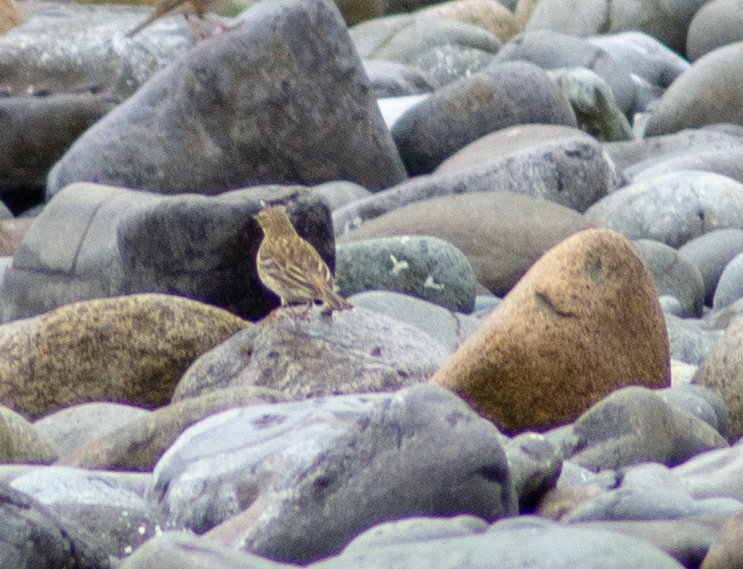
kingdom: Animalia
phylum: Chordata
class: Aves
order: Passeriformes
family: Motacillidae
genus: Anthus
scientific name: Anthus pratensis
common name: Meadow pipit
